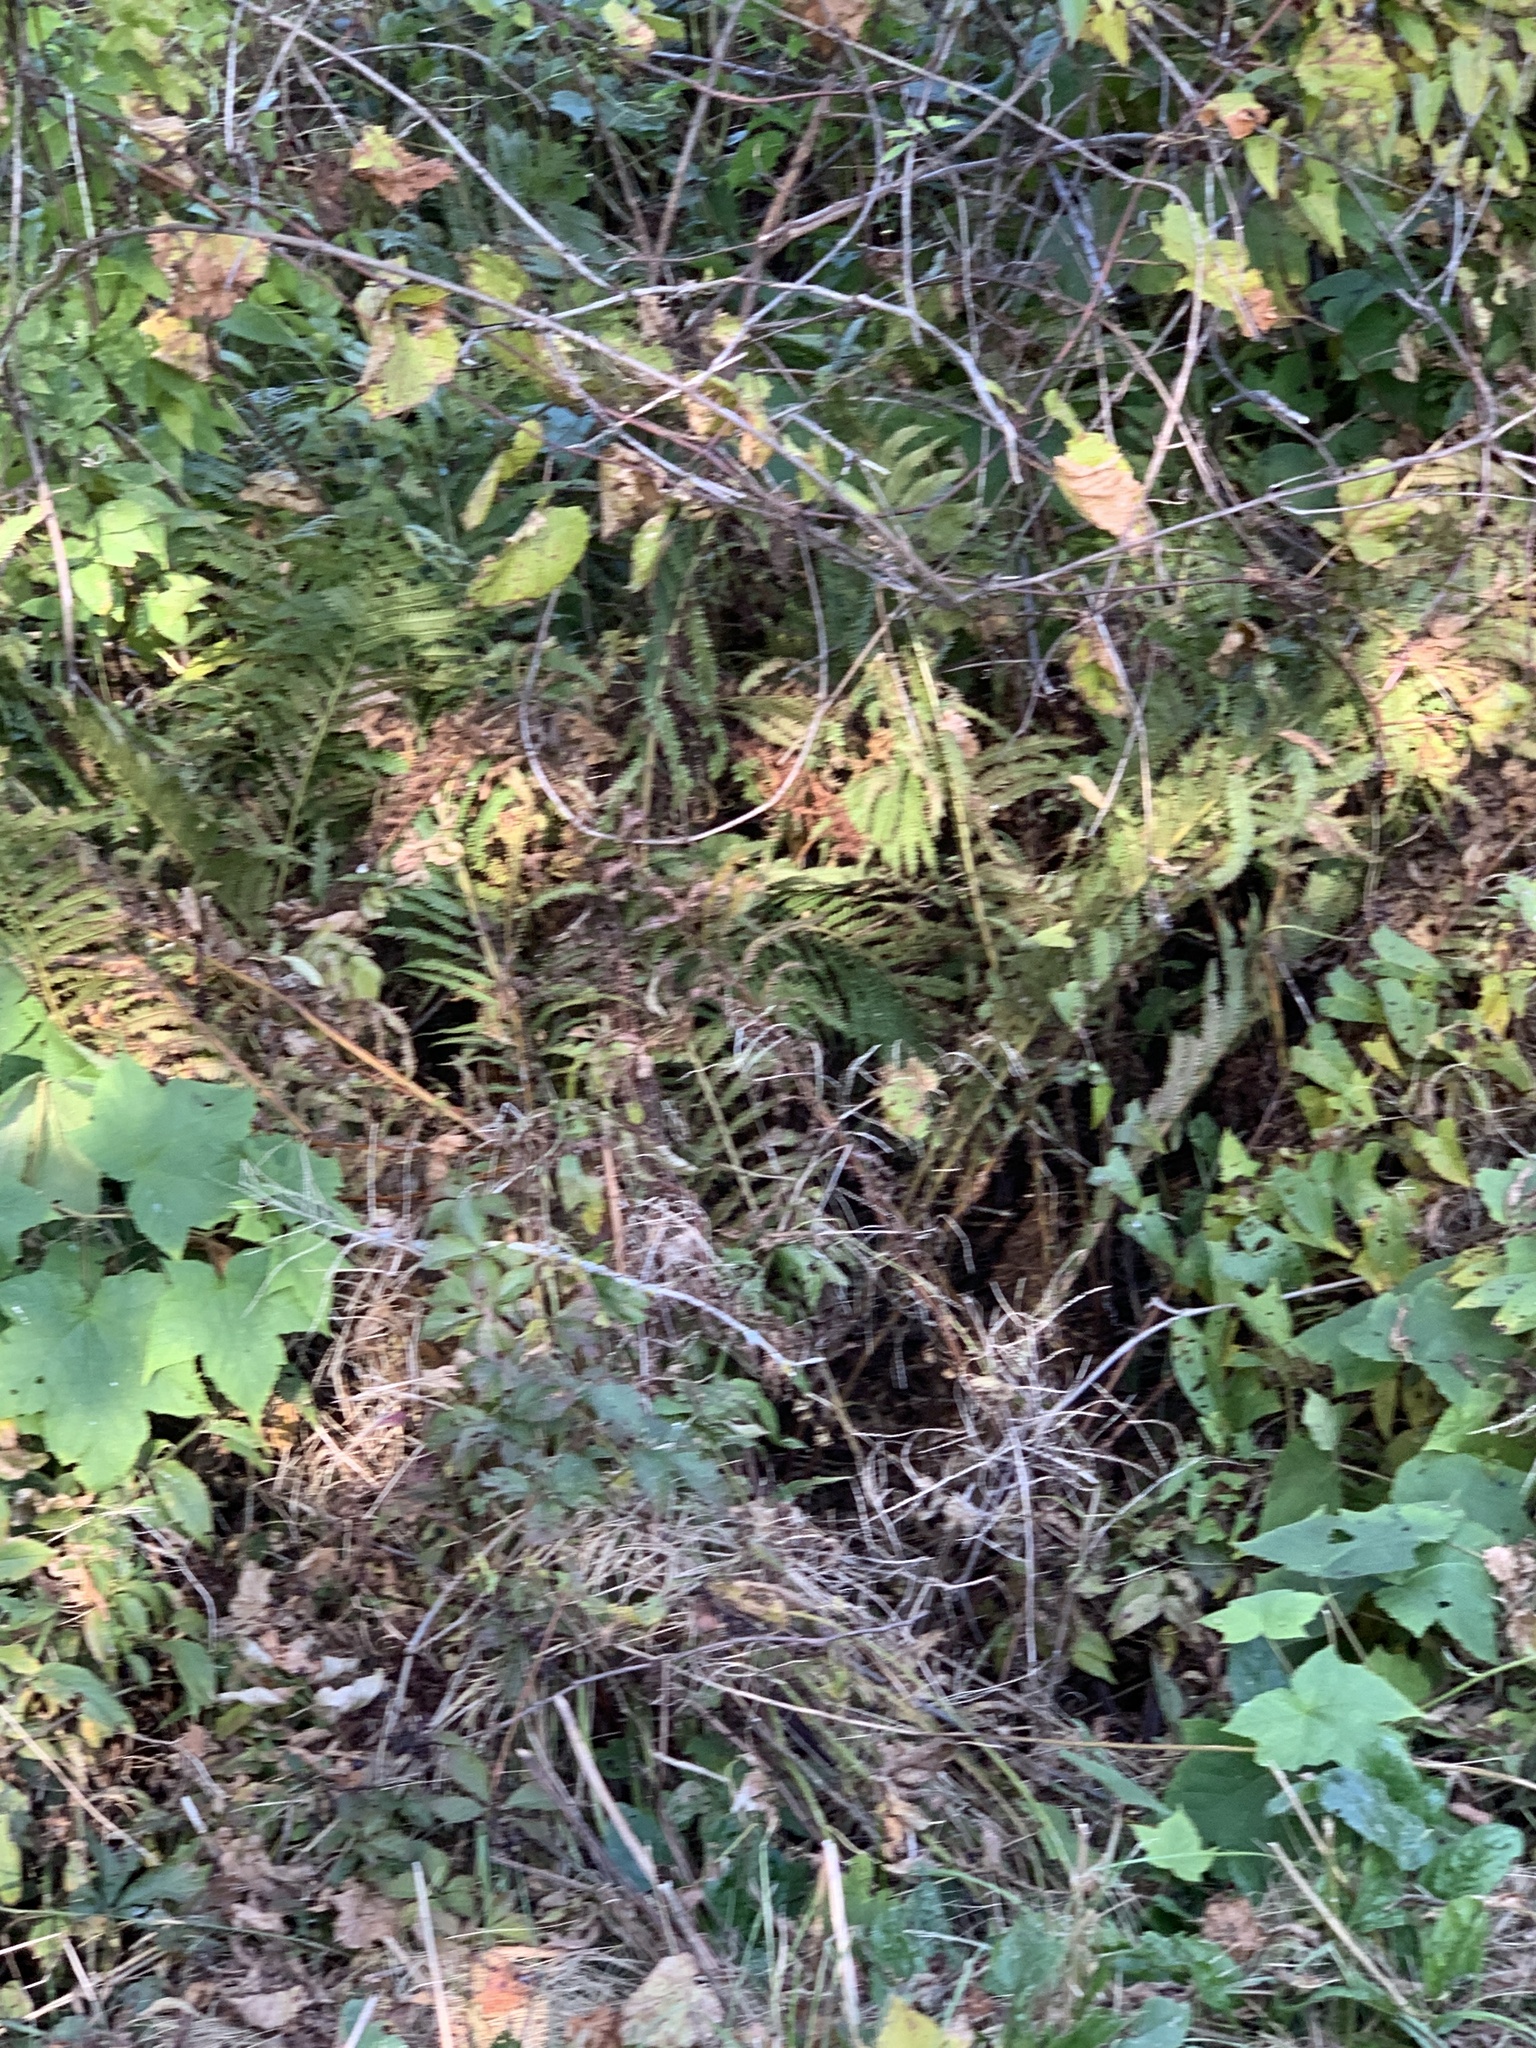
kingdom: Plantae
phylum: Tracheophyta
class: Polypodiopsida
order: Polypodiales
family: Onocleaceae
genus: Matteuccia
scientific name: Matteuccia struthiopteris
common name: Ostrich fern
